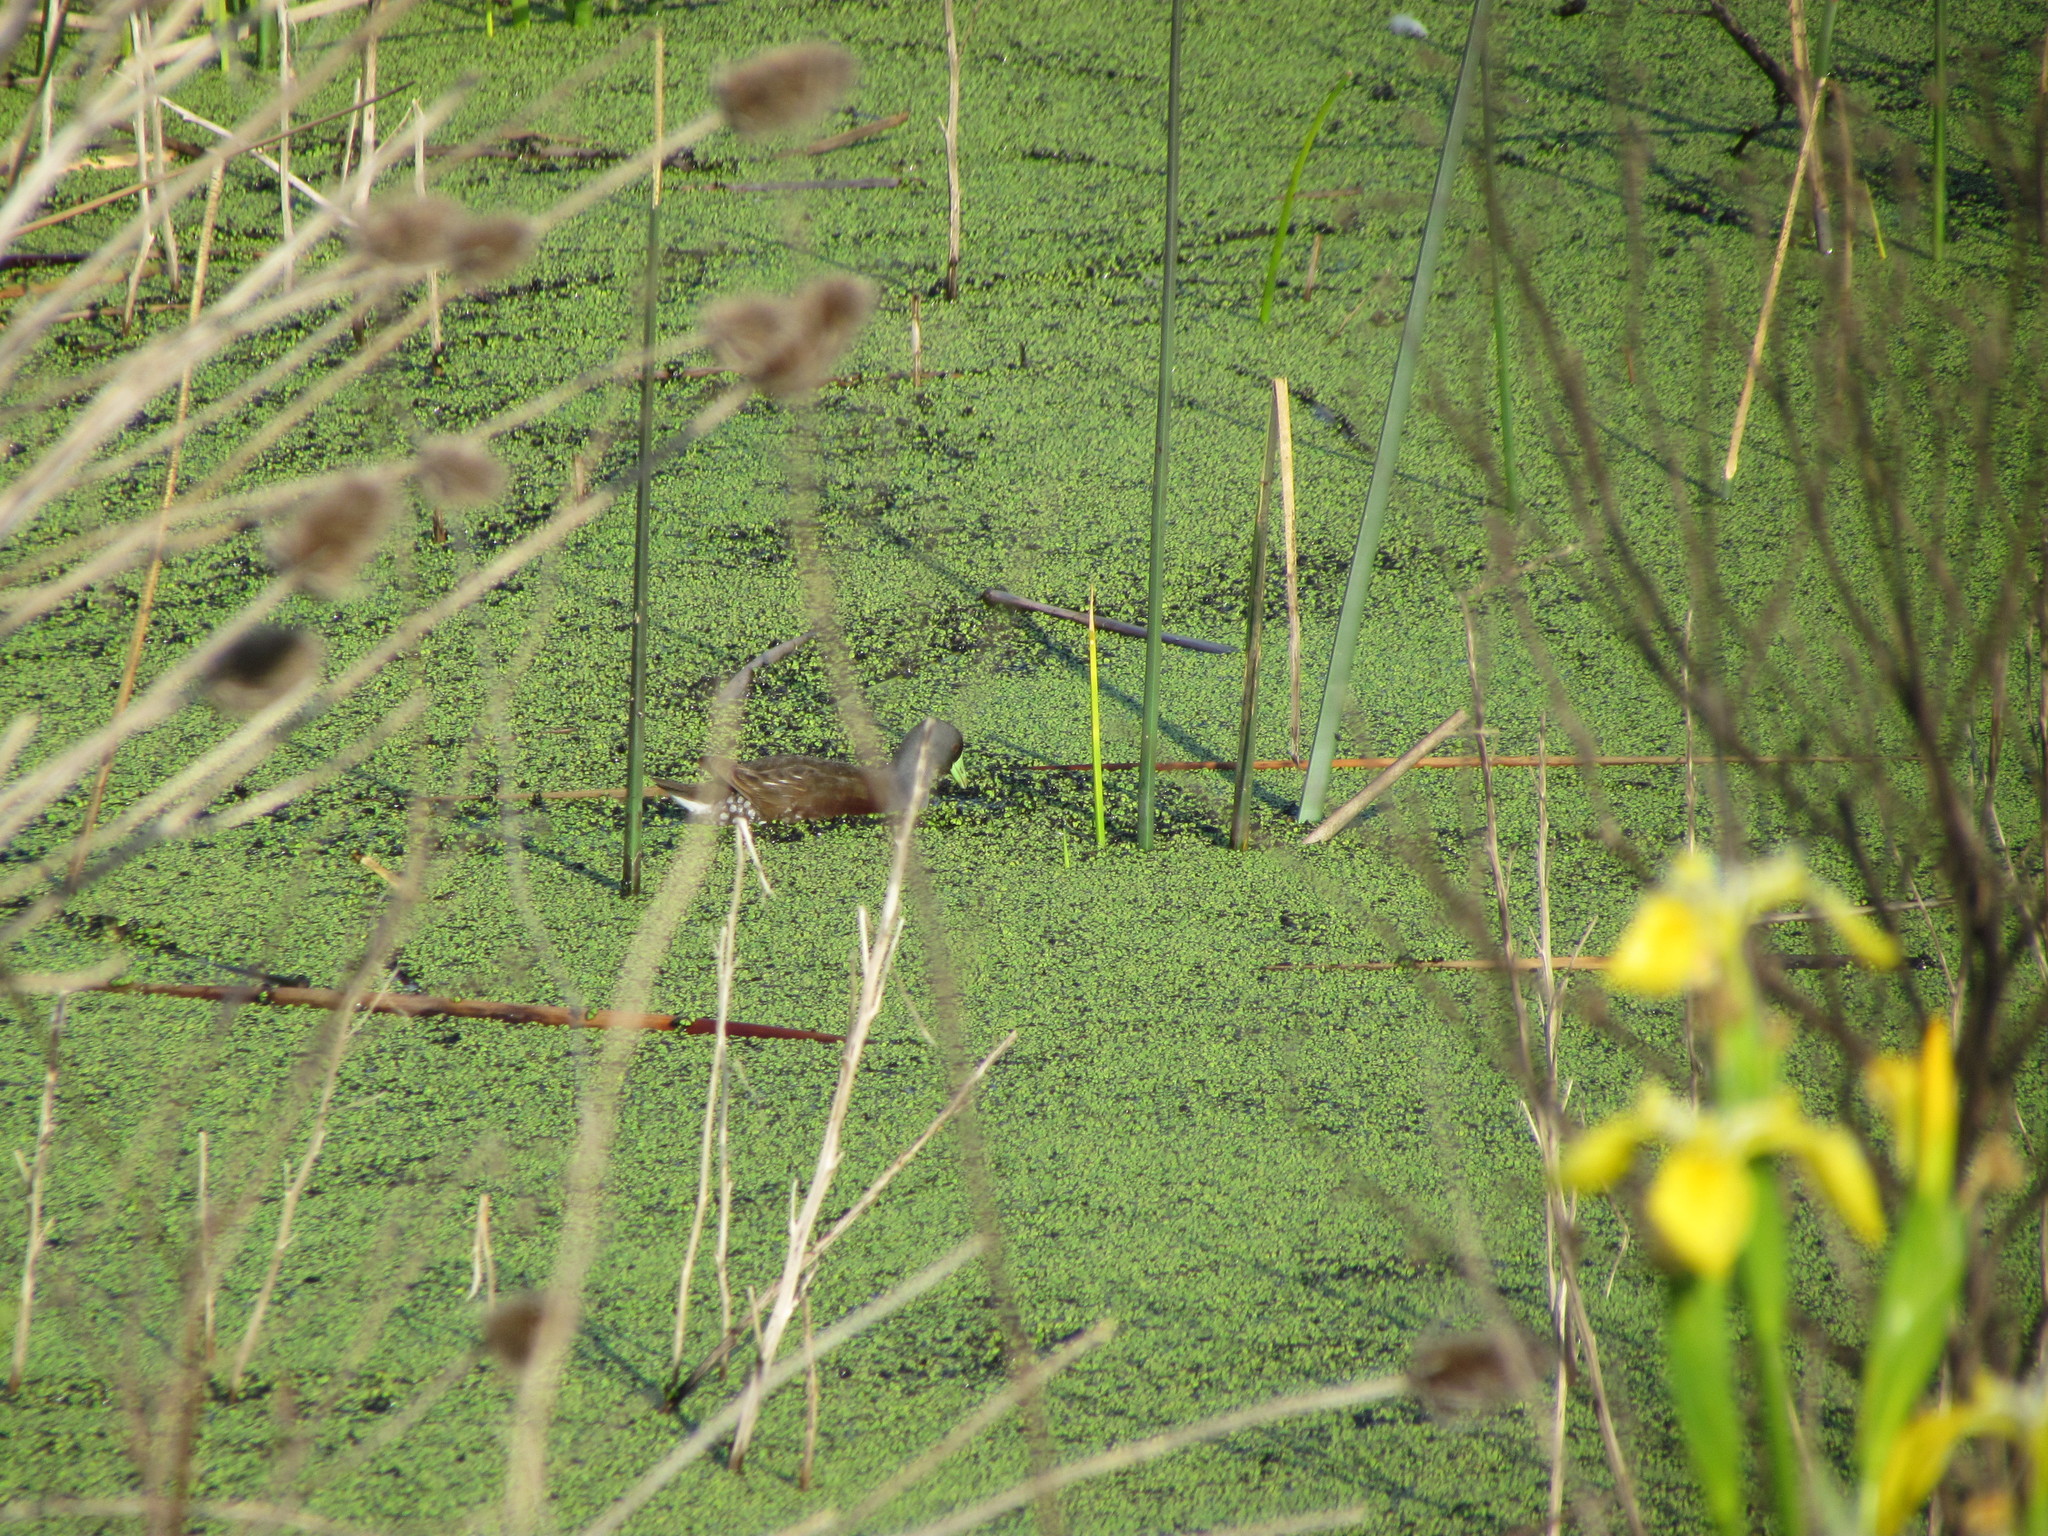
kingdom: Animalia
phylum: Chordata
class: Aves
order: Gruiformes
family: Rallidae
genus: Gallinula
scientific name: Gallinula melanops
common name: Spot-flanked gallinule
